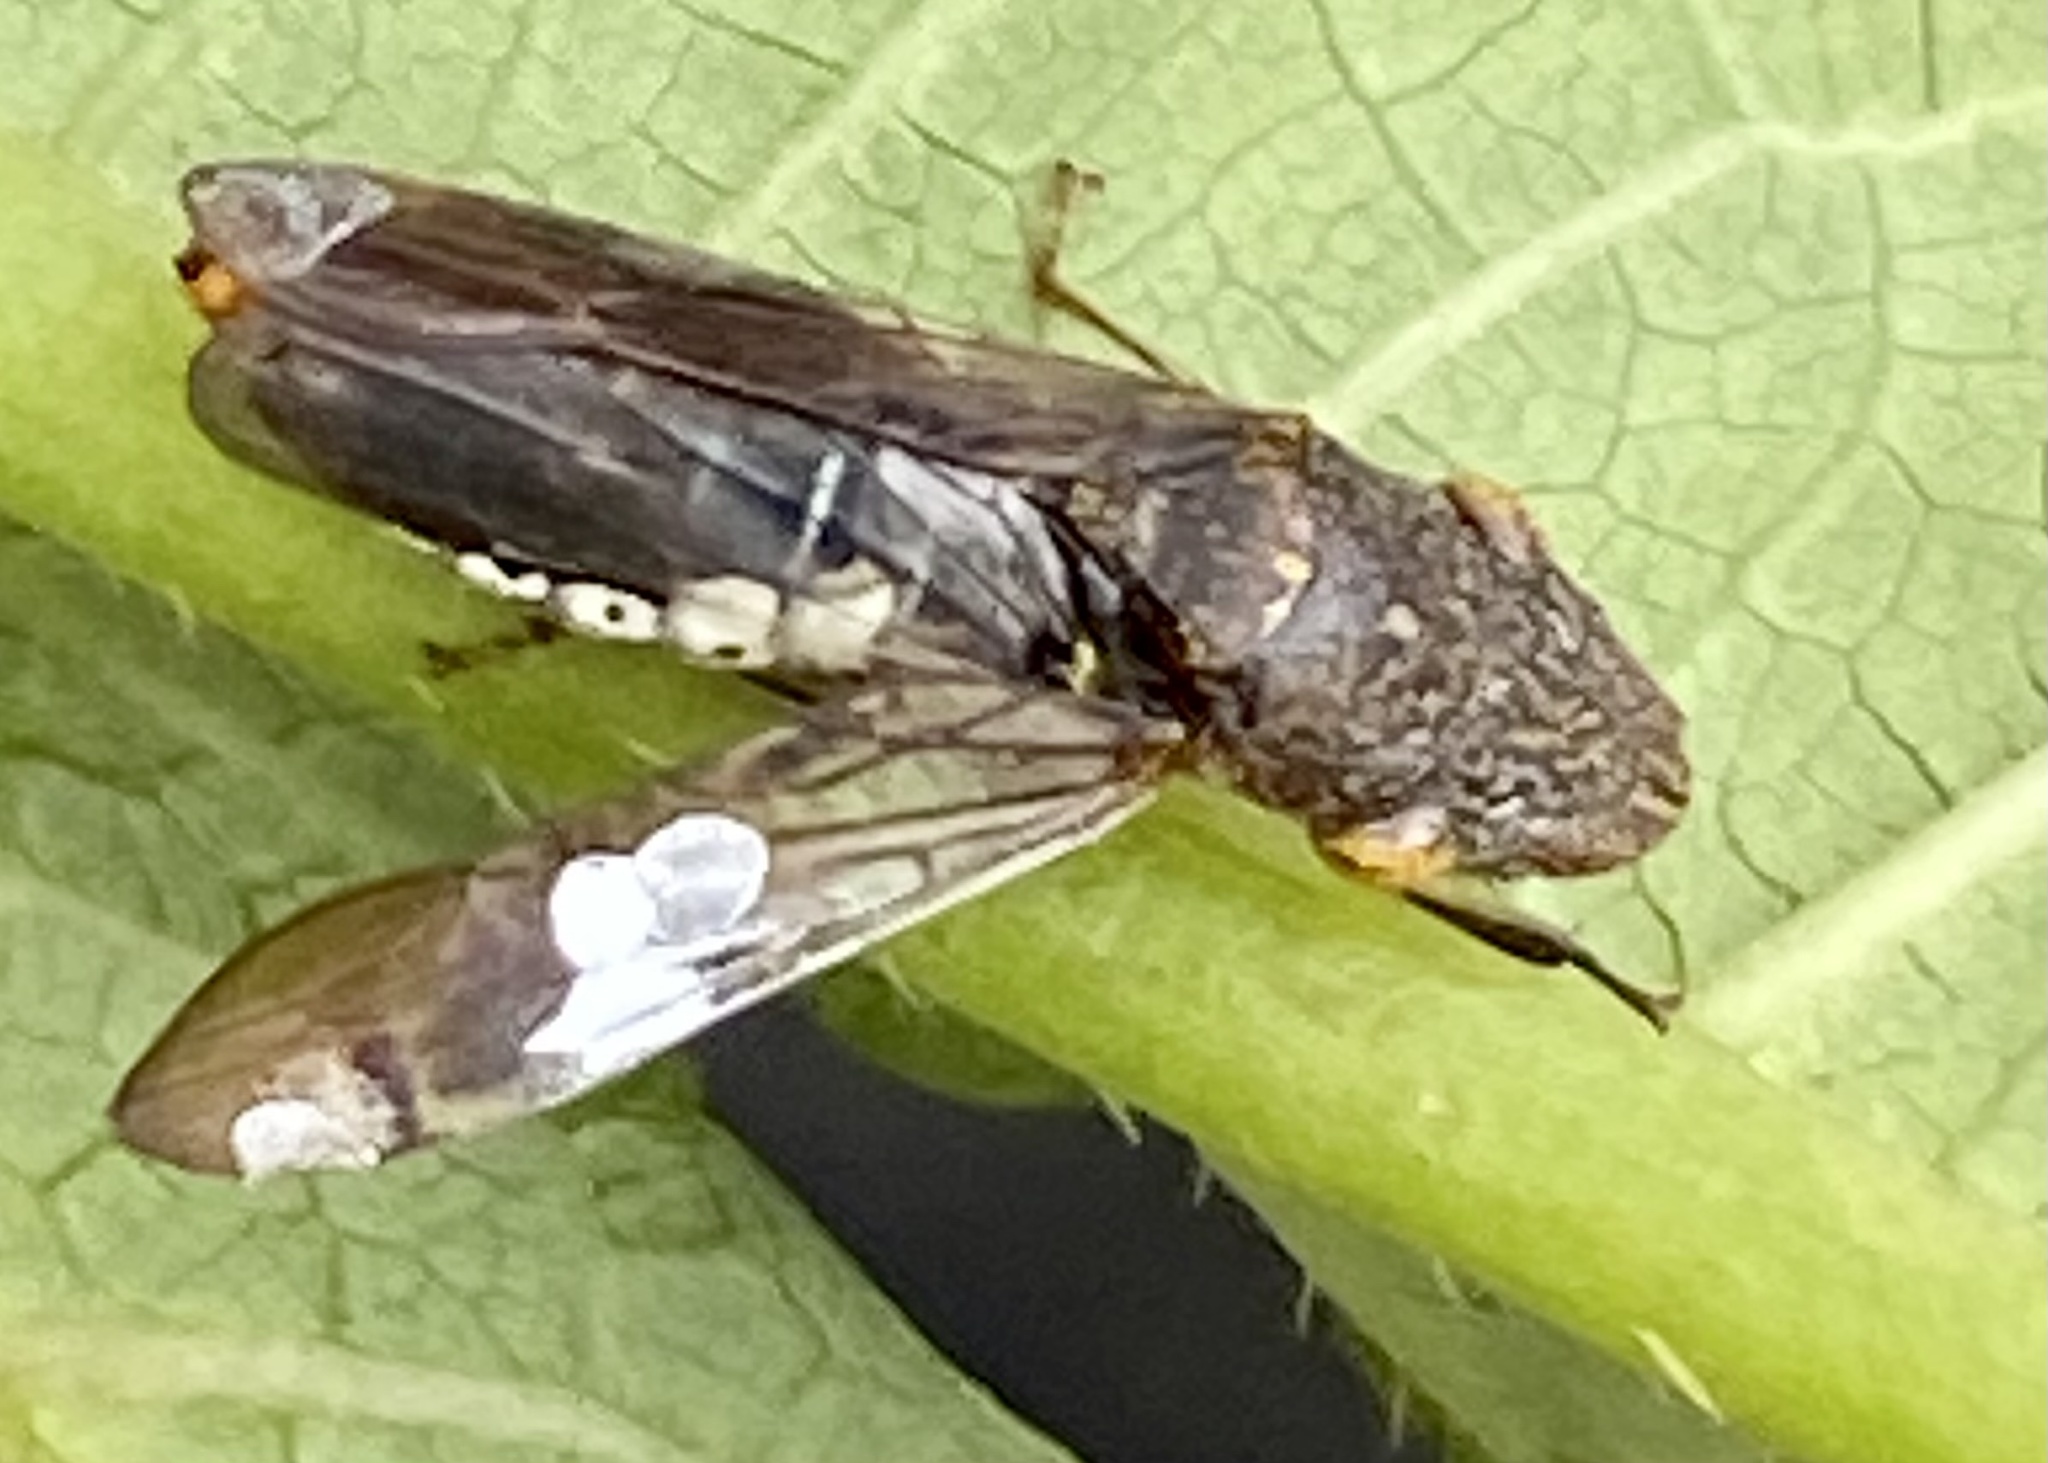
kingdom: Animalia
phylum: Arthropoda
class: Insecta
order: Hemiptera
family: Cicadellidae
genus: Homalodisca
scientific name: Homalodisca vitripennis
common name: Glassy-winged sharpshooter
